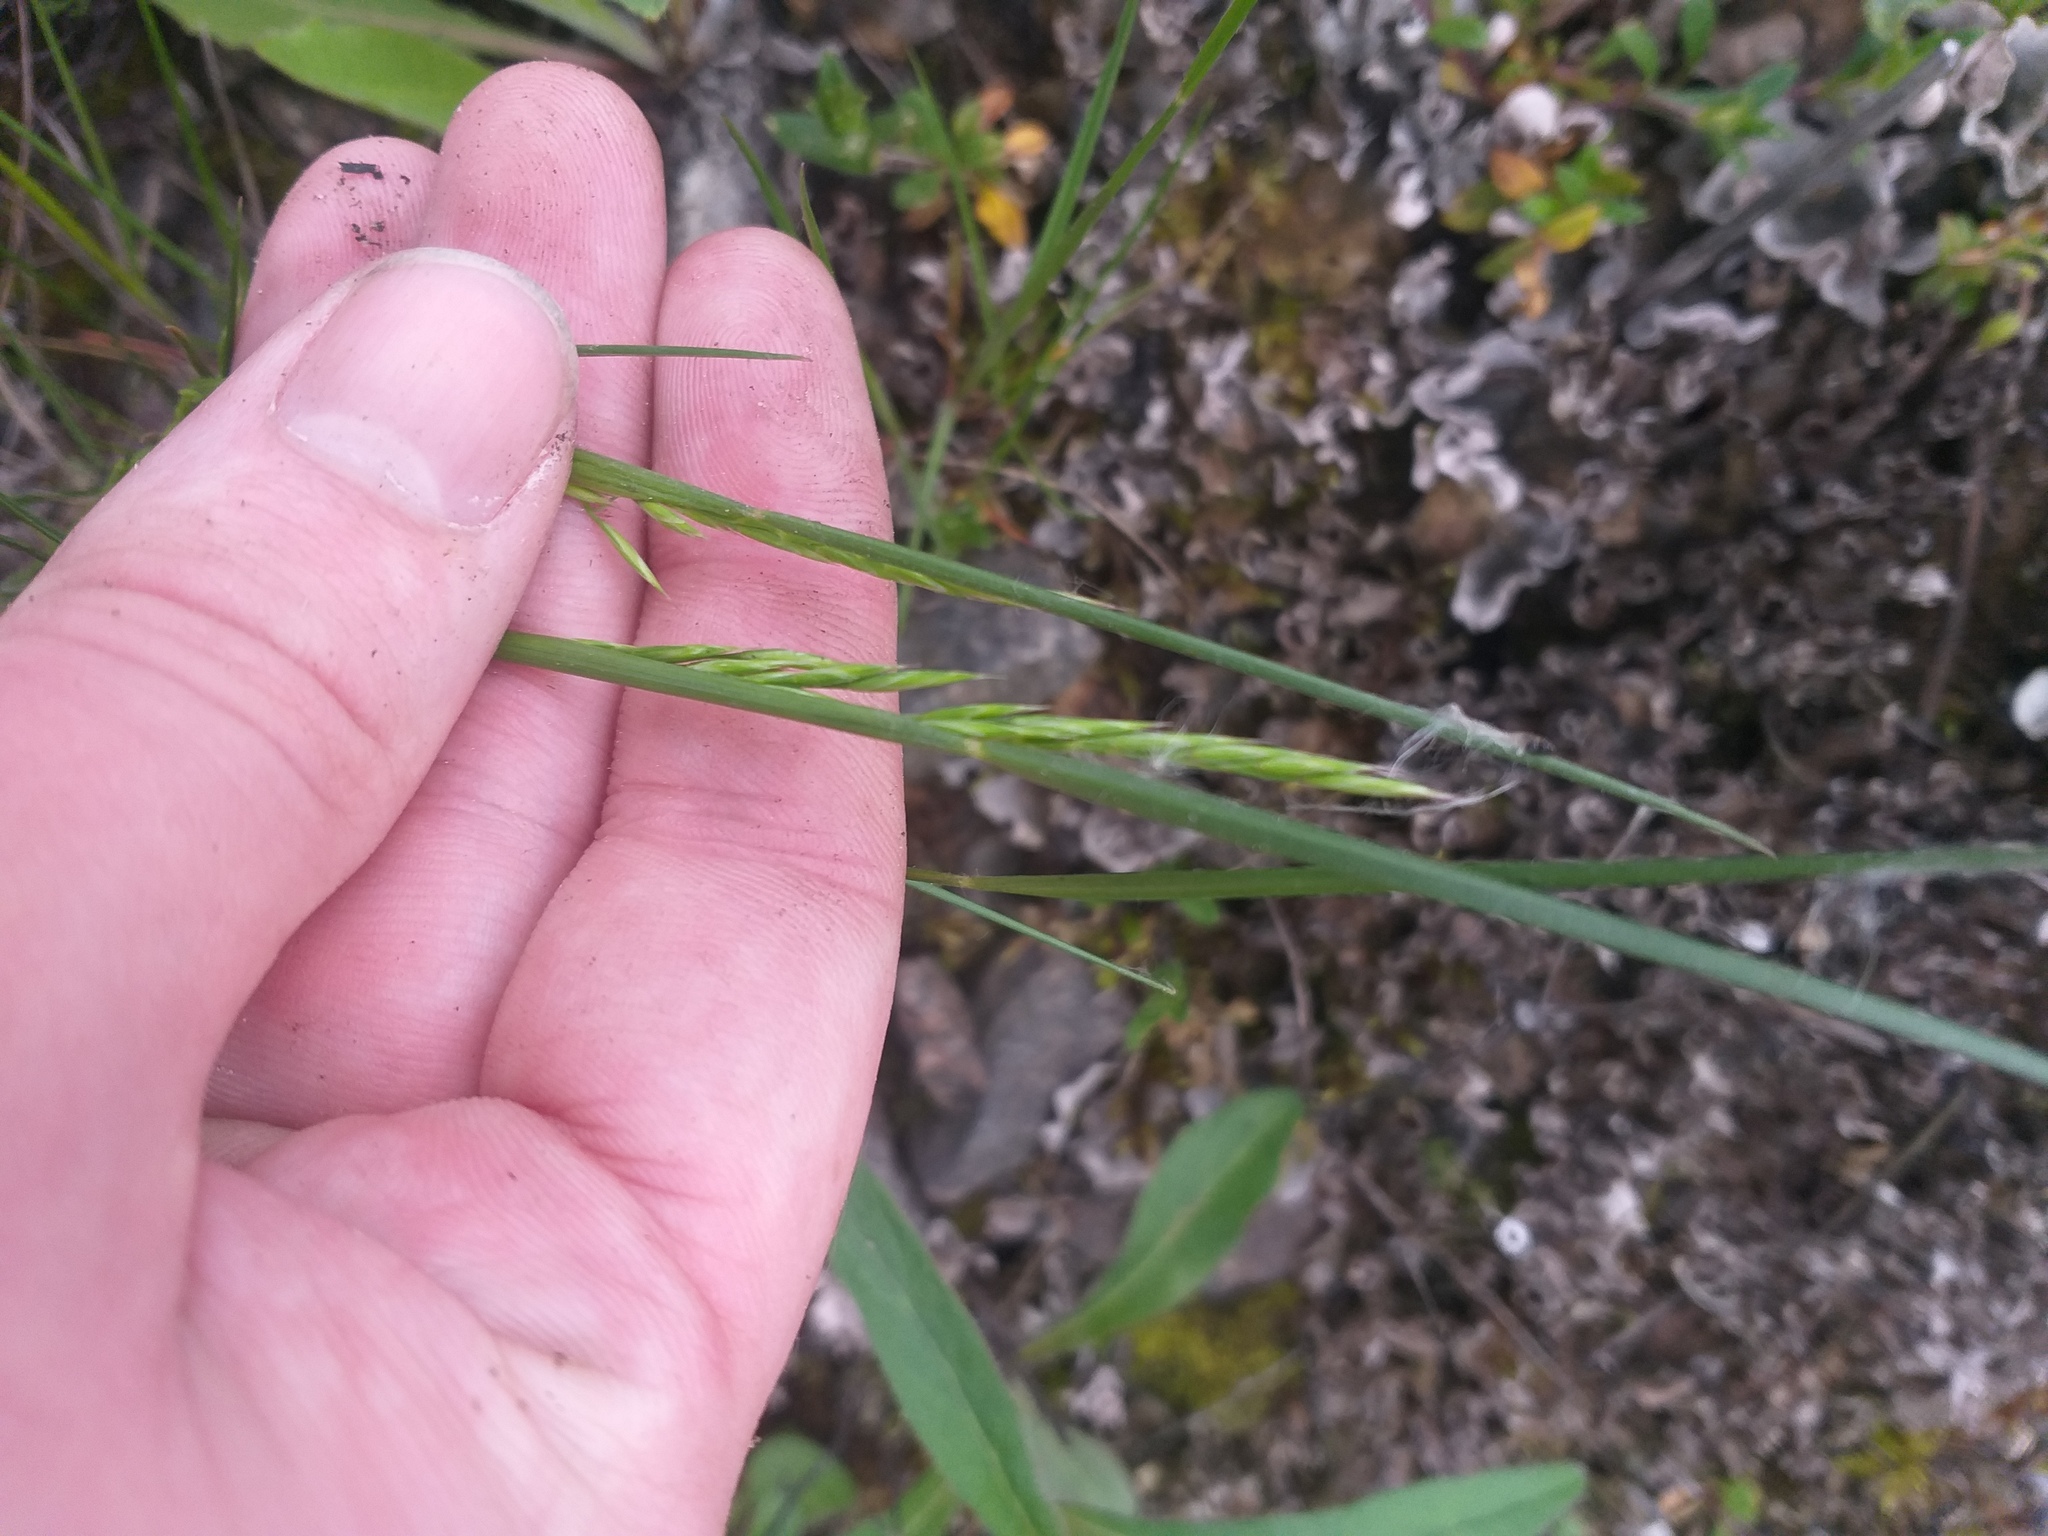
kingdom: Plantae
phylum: Tracheophyta
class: Liliopsida
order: Poales
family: Poaceae
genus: Festuca
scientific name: Festuca rubra
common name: Red fescue
